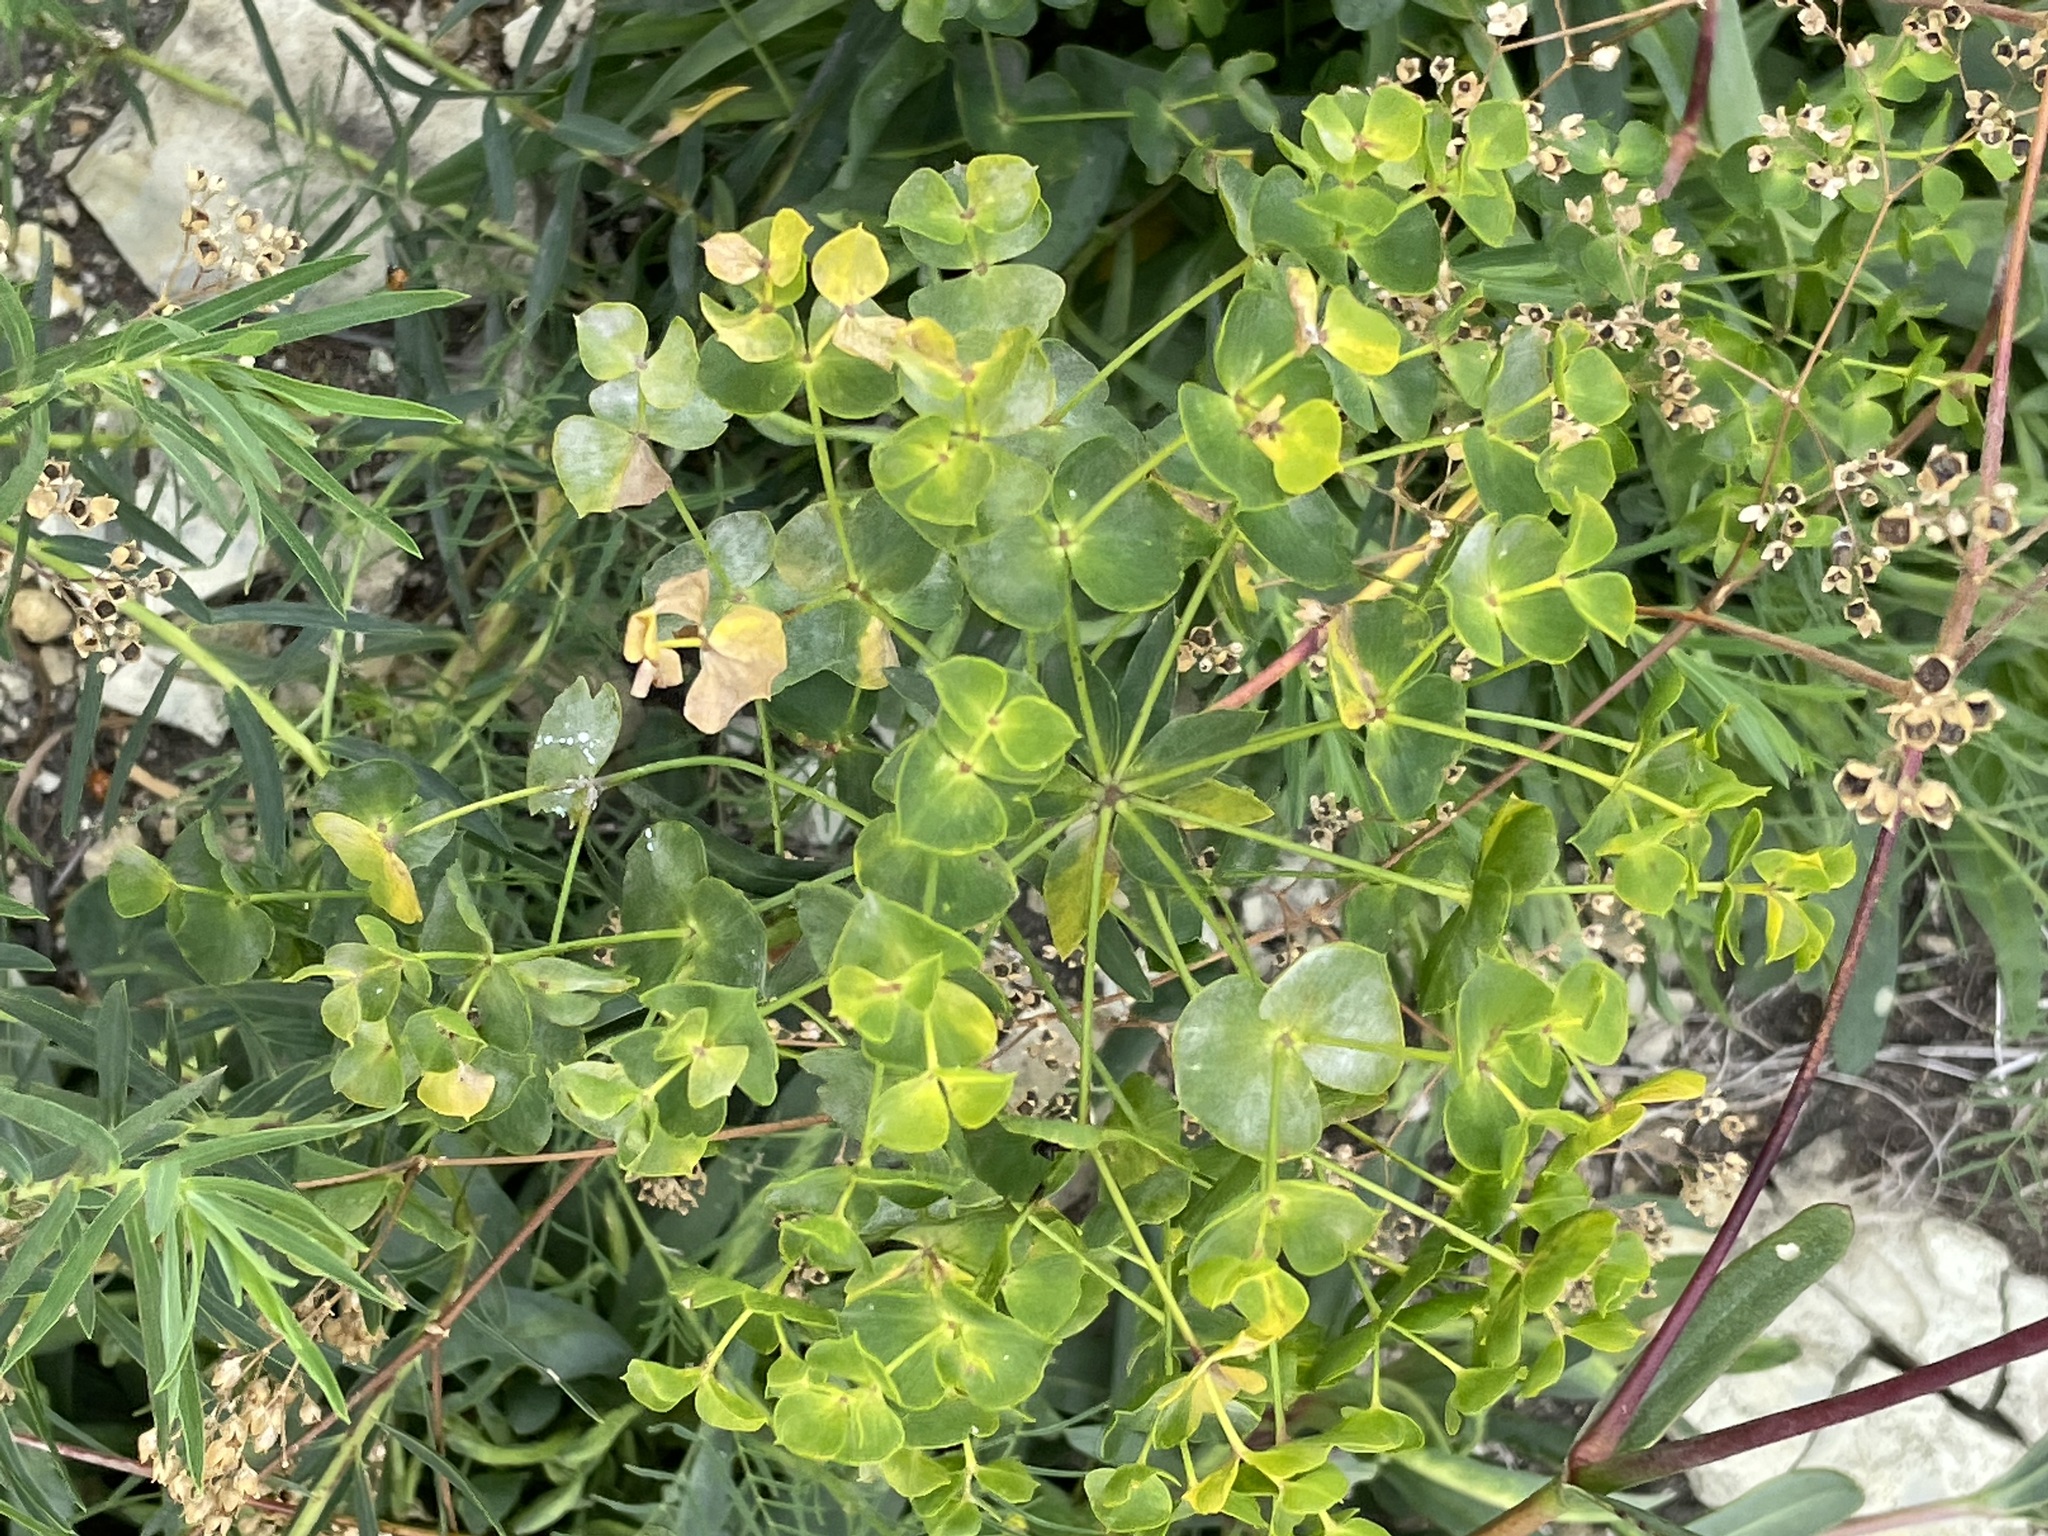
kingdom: Plantae
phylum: Tracheophyta
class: Magnoliopsida
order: Malpighiales
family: Euphorbiaceae
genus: Euphorbia
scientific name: Euphorbia virgata
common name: Leafy spurge
